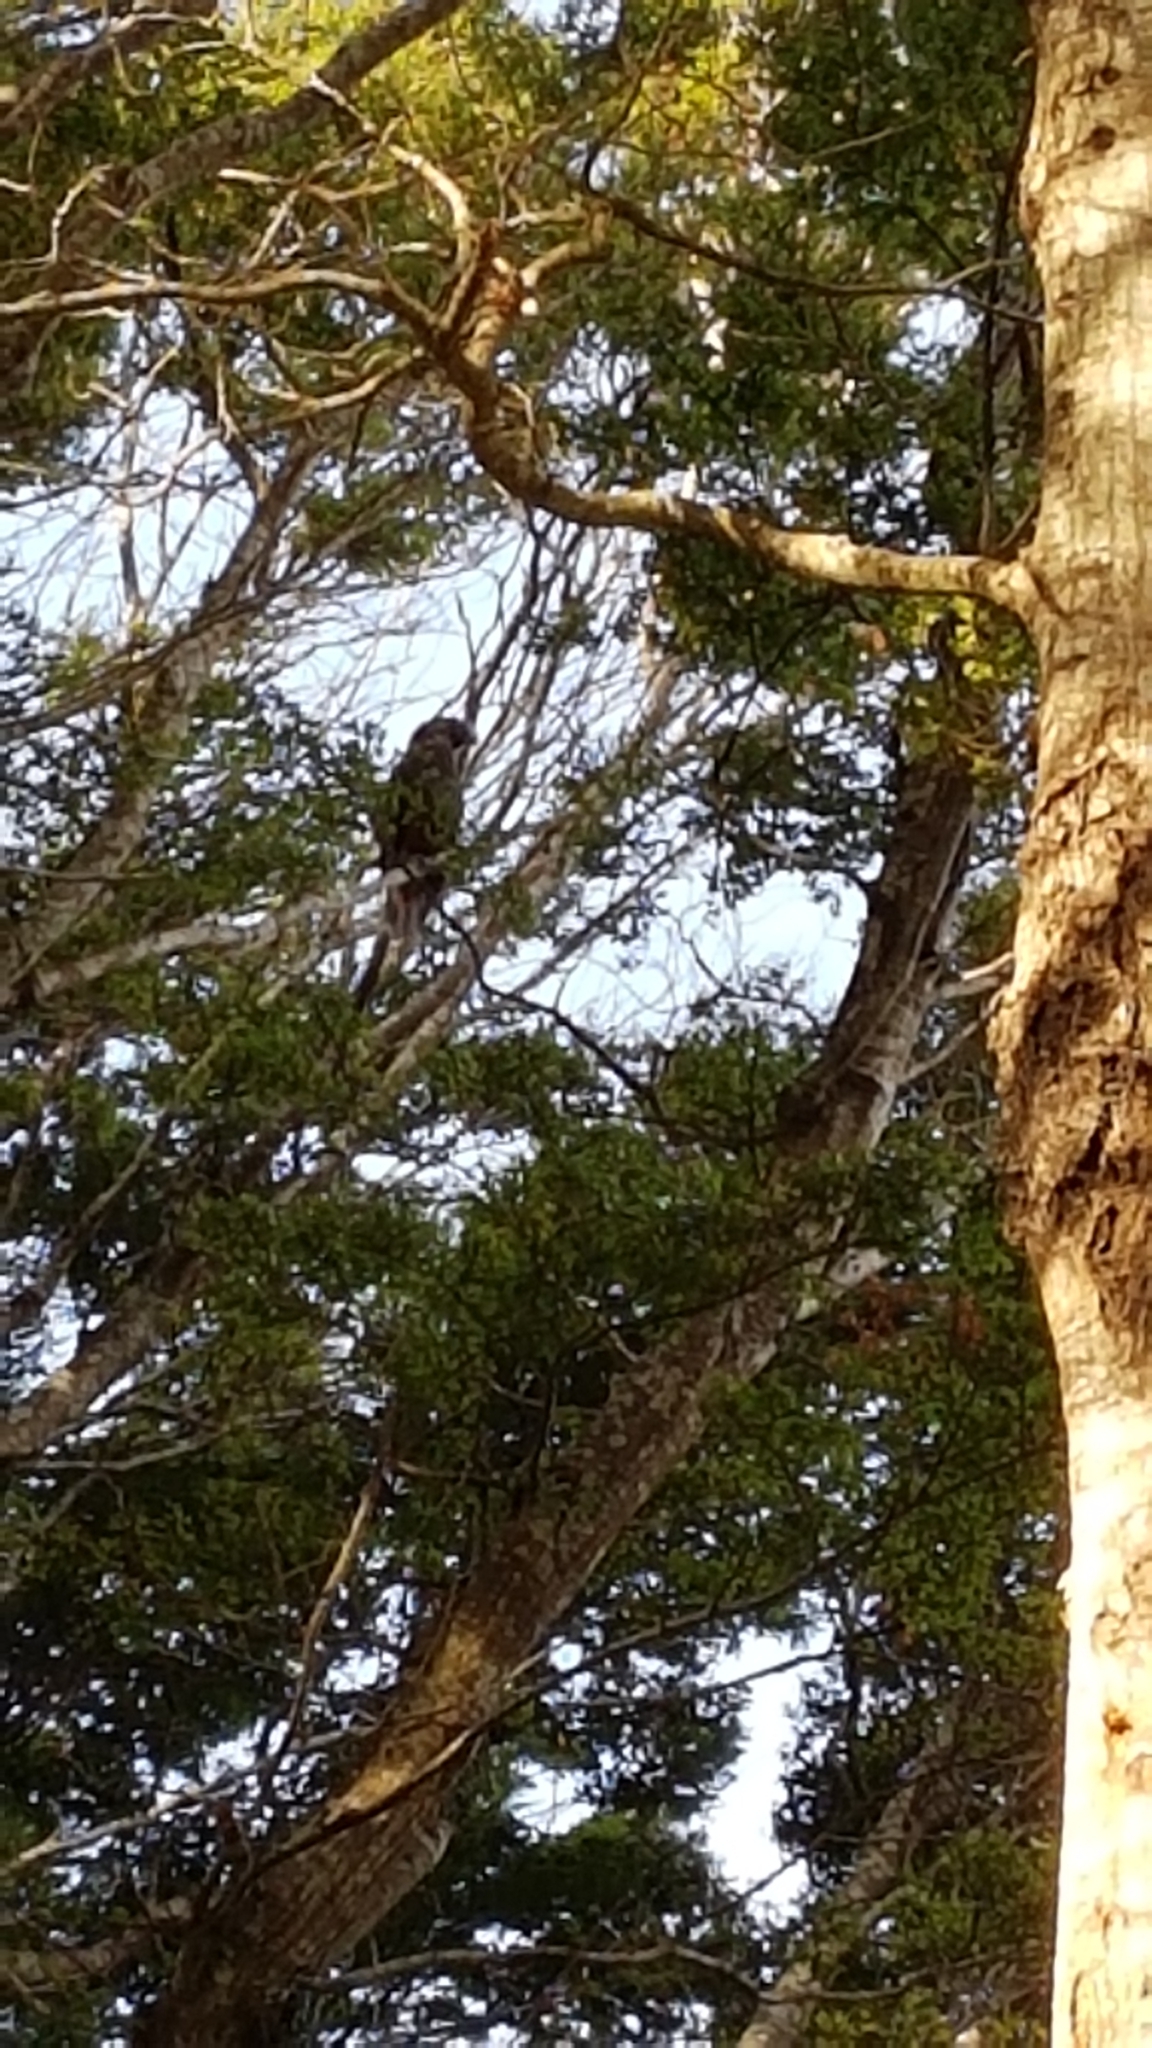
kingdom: Animalia
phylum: Chordata
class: Aves
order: Psittaciformes
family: Psittacidae
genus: Nestor
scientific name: Nestor meridionalis
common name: New zealand kaka
